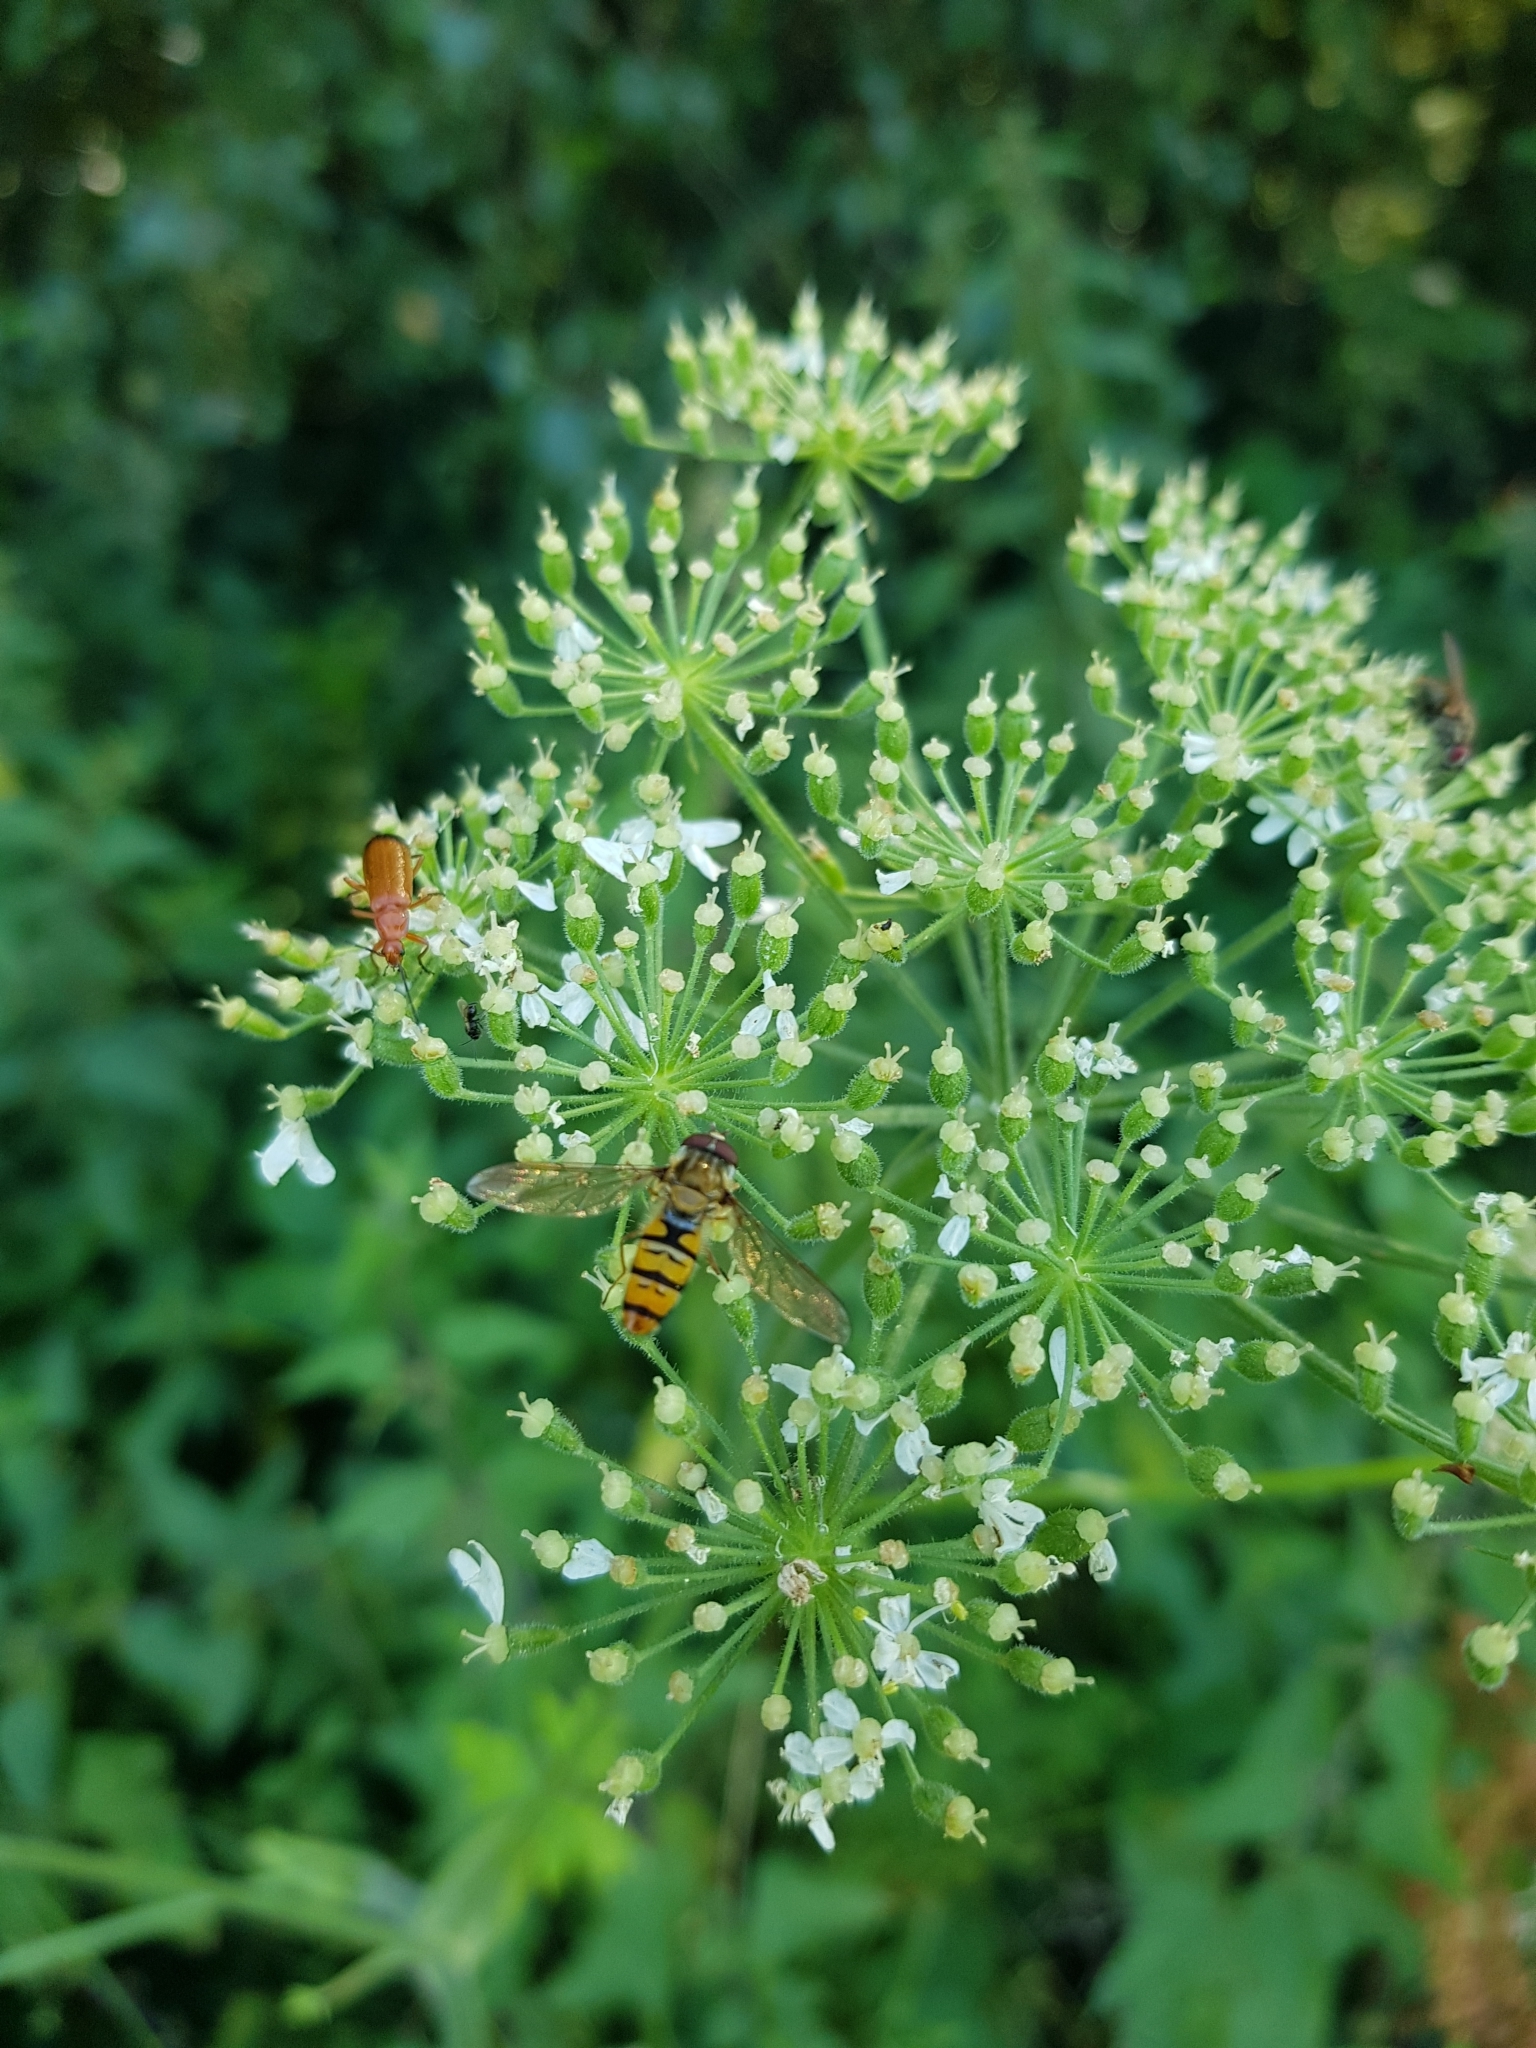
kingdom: Animalia
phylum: Arthropoda
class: Insecta
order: Diptera
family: Syrphidae
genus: Episyrphus
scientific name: Episyrphus balteatus
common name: Marmalade hoverfly
